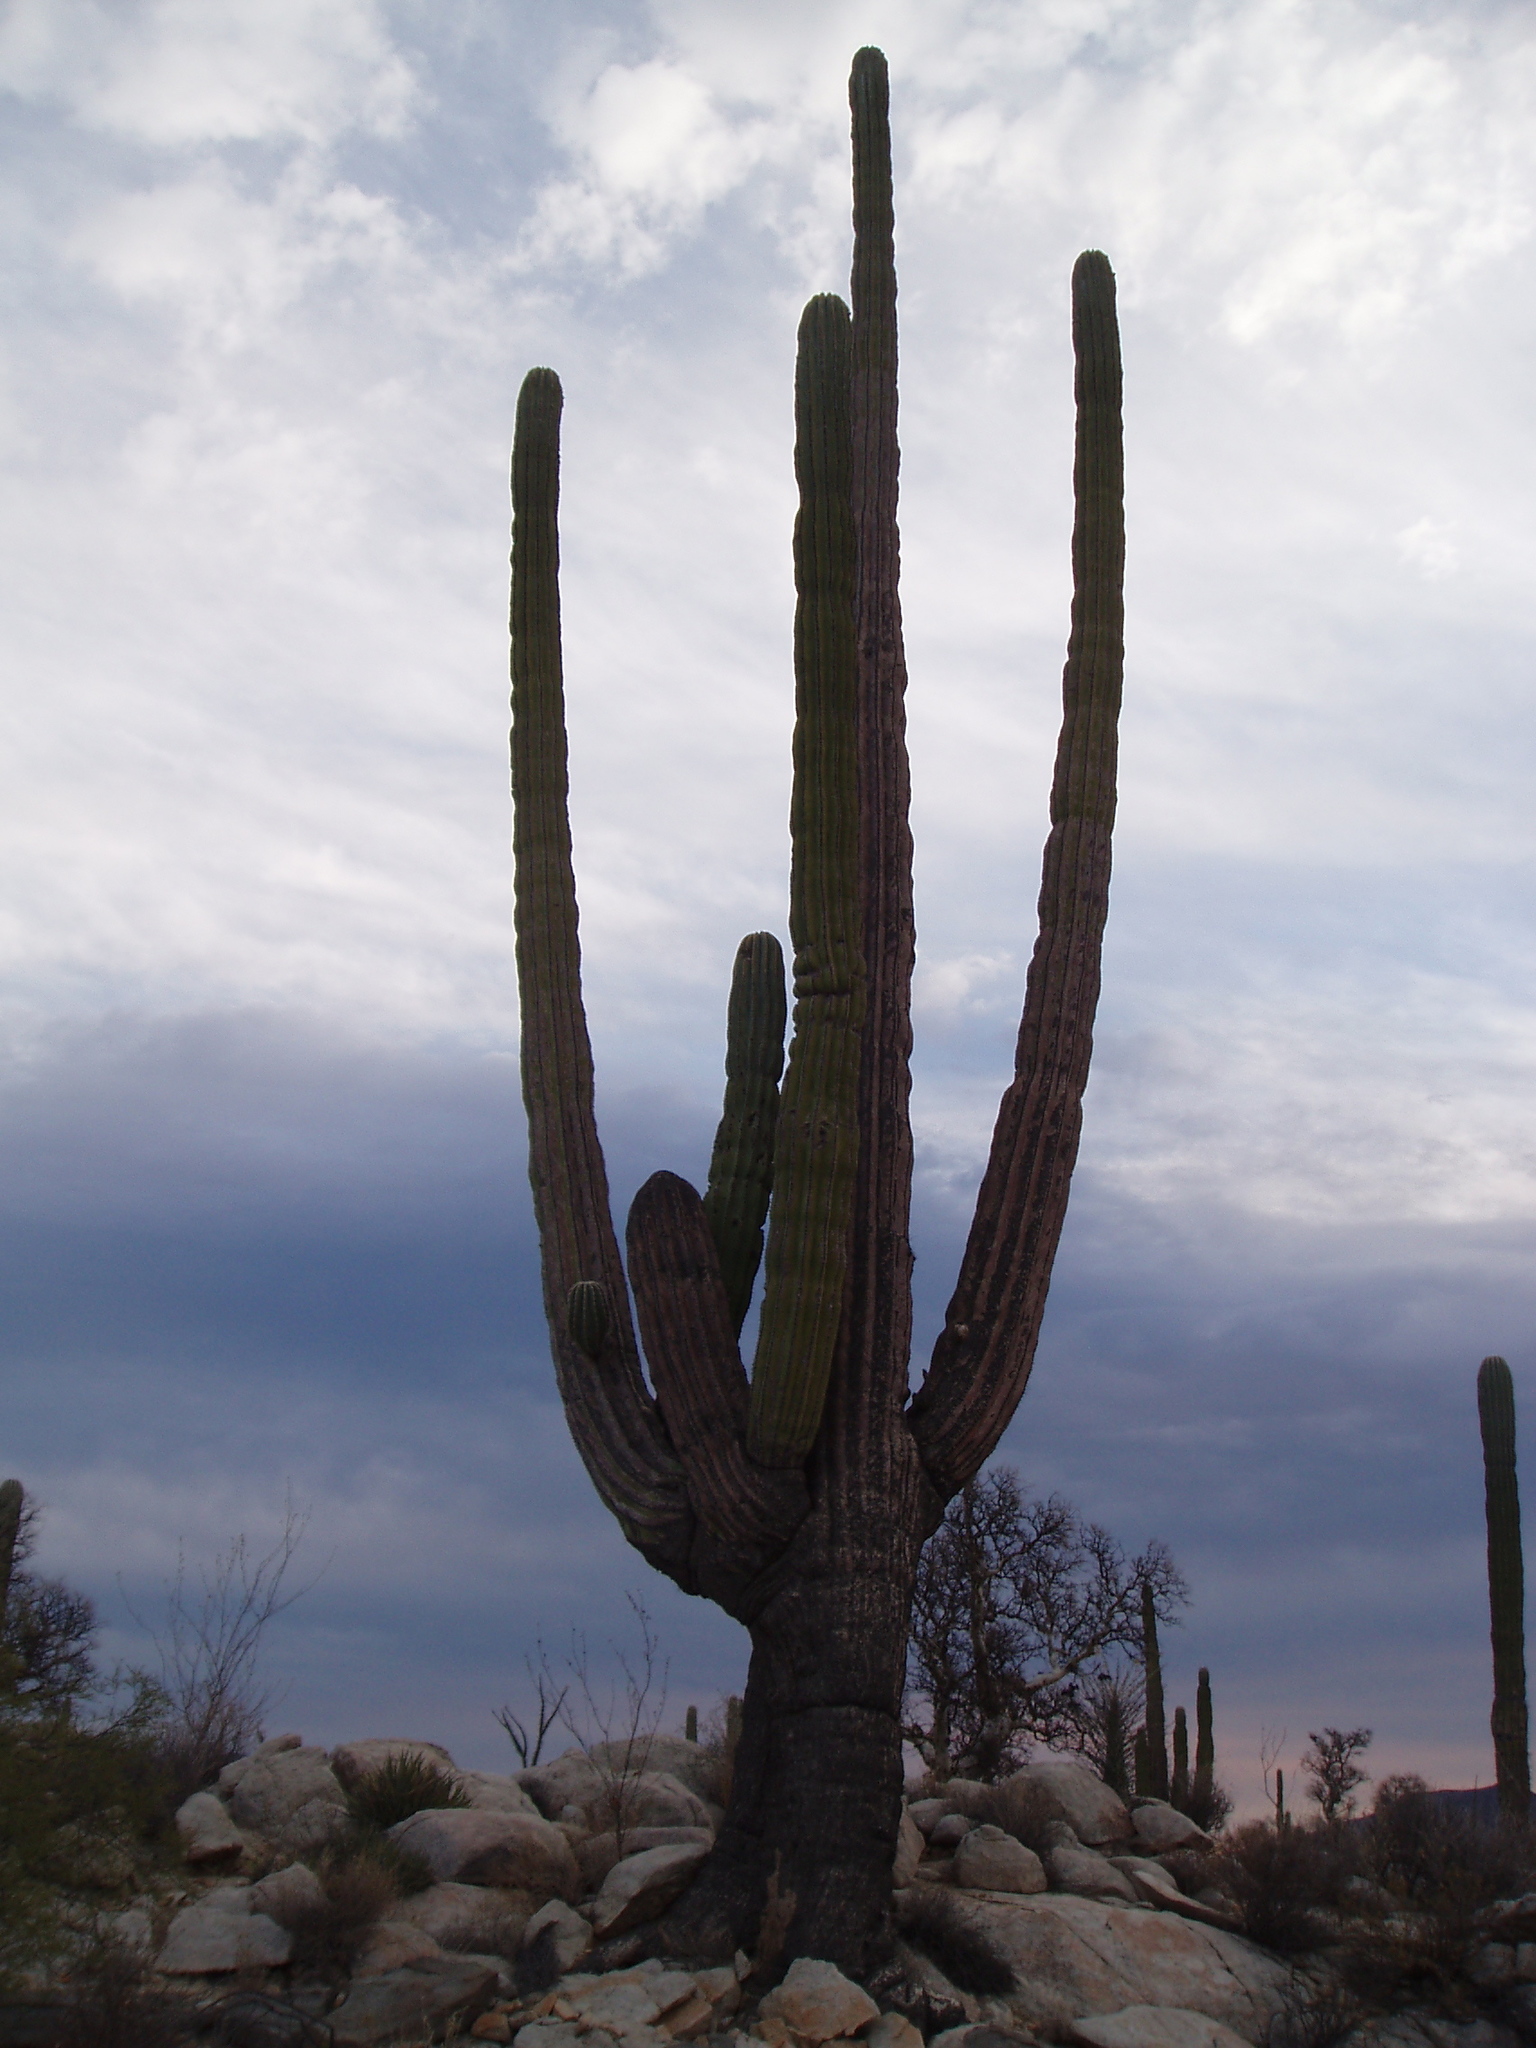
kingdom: Plantae
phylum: Tracheophyta
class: Magnoliopsida
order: Caryophyllales
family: Cactaceae
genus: Pachycereus
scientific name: Pachycereus pringlei
